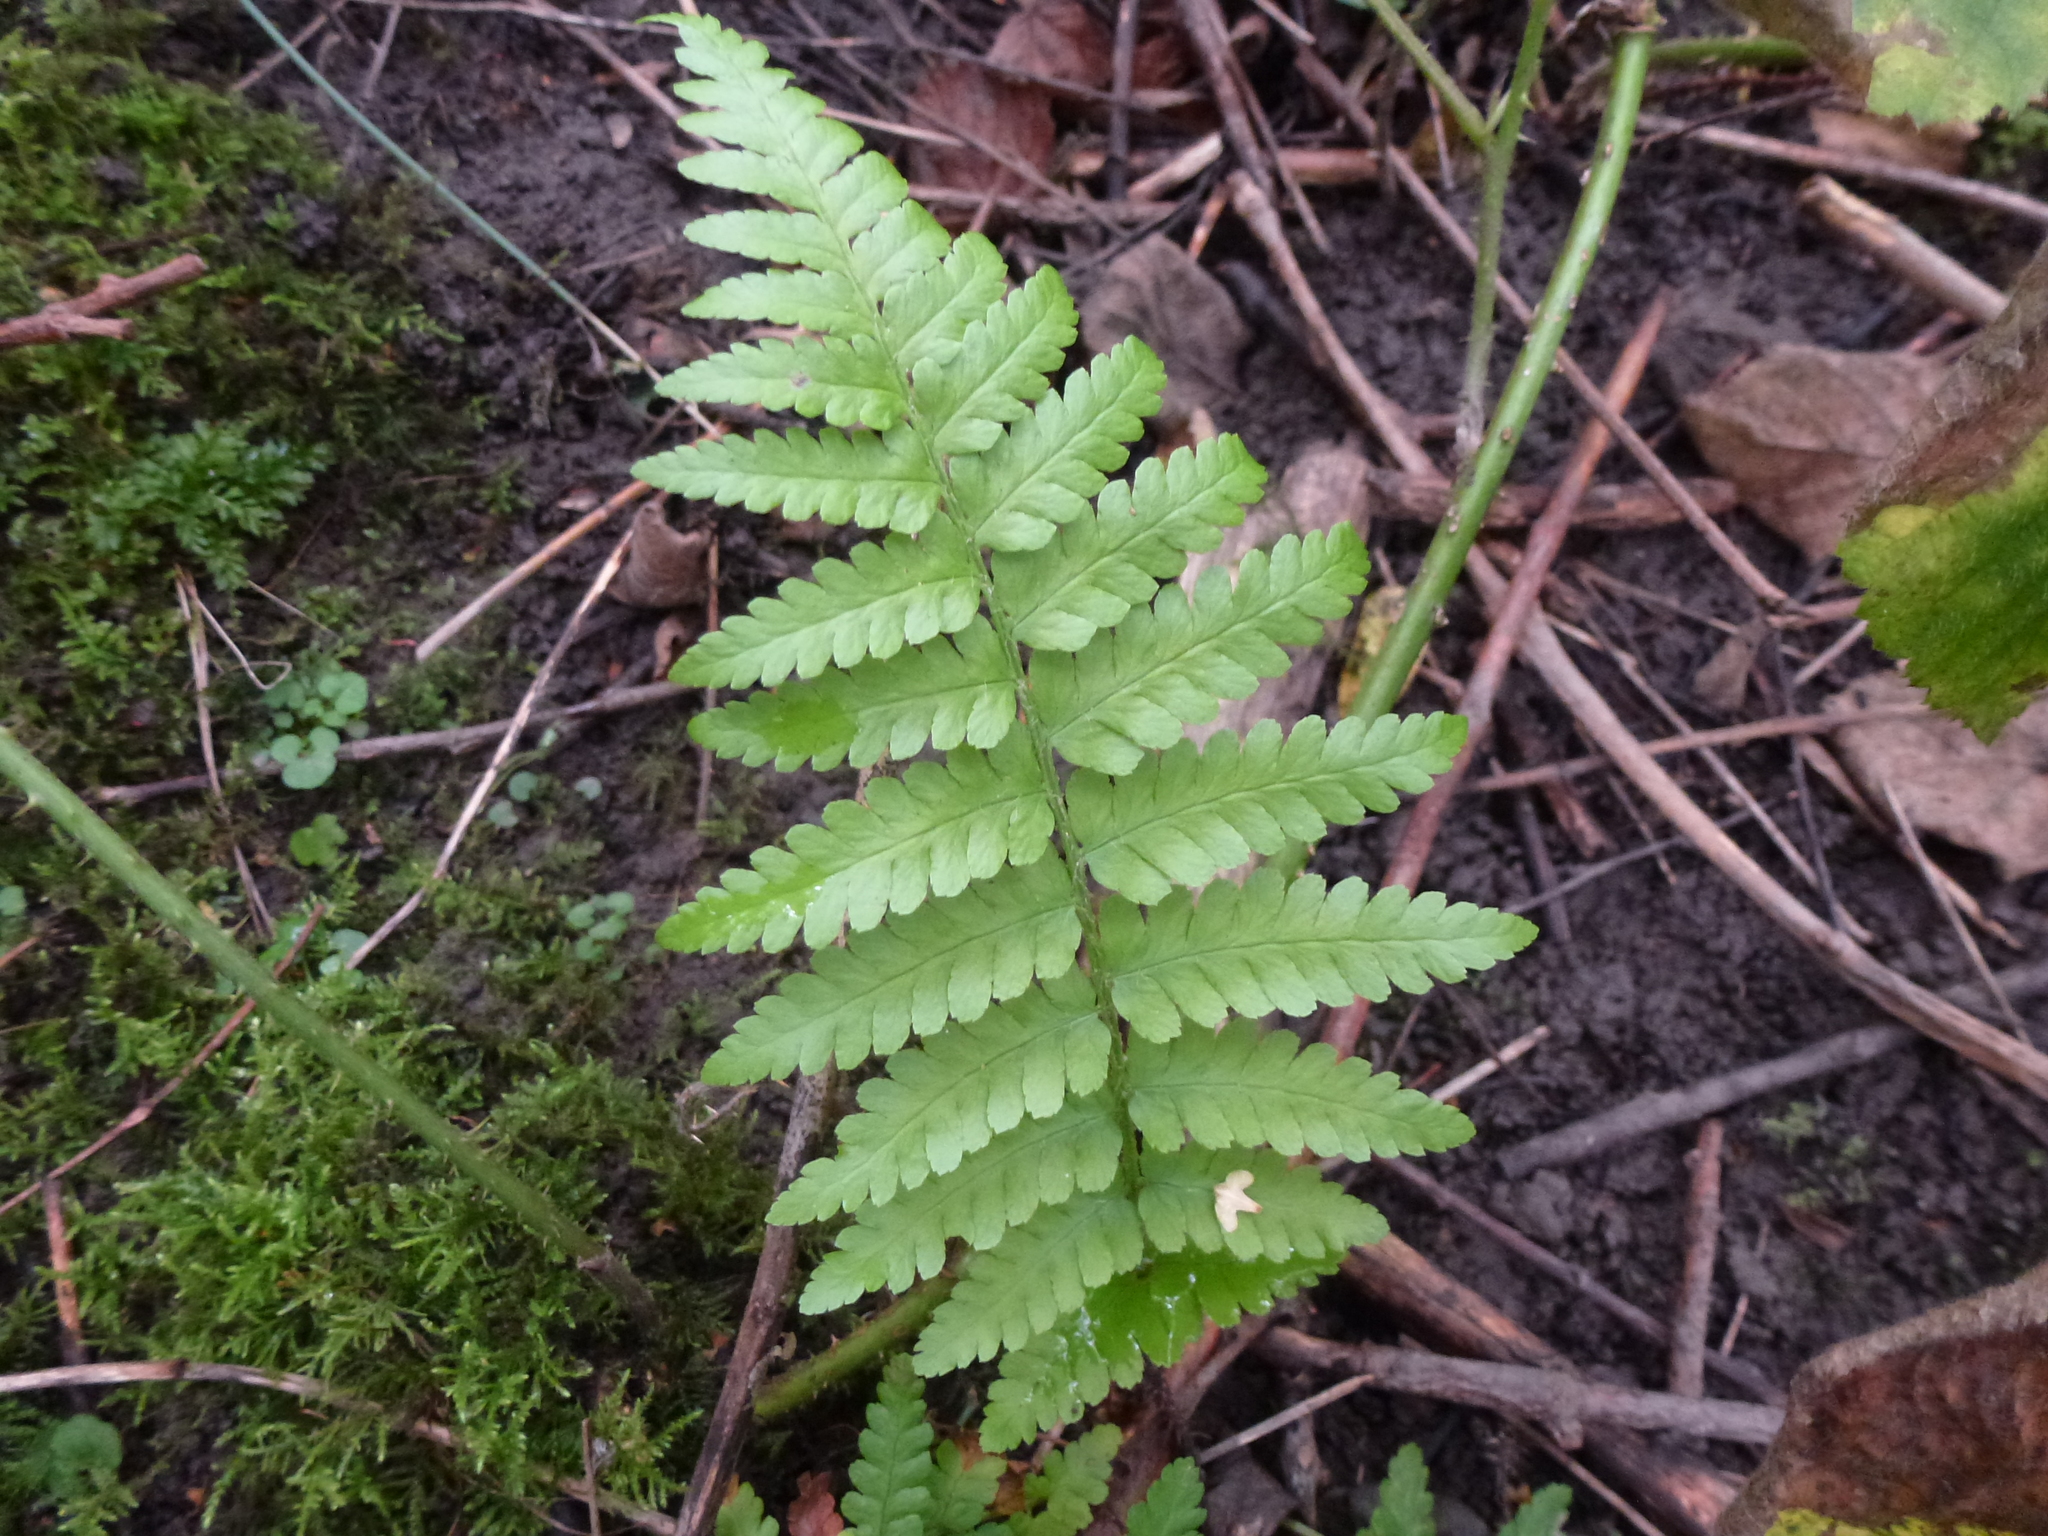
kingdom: Plantae
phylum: Tracheophyta
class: Polypodiopsida
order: Polypodiales
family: Dryopteridaceae
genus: Dryopteris
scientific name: Dryopteris filix-mas
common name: Male fern
